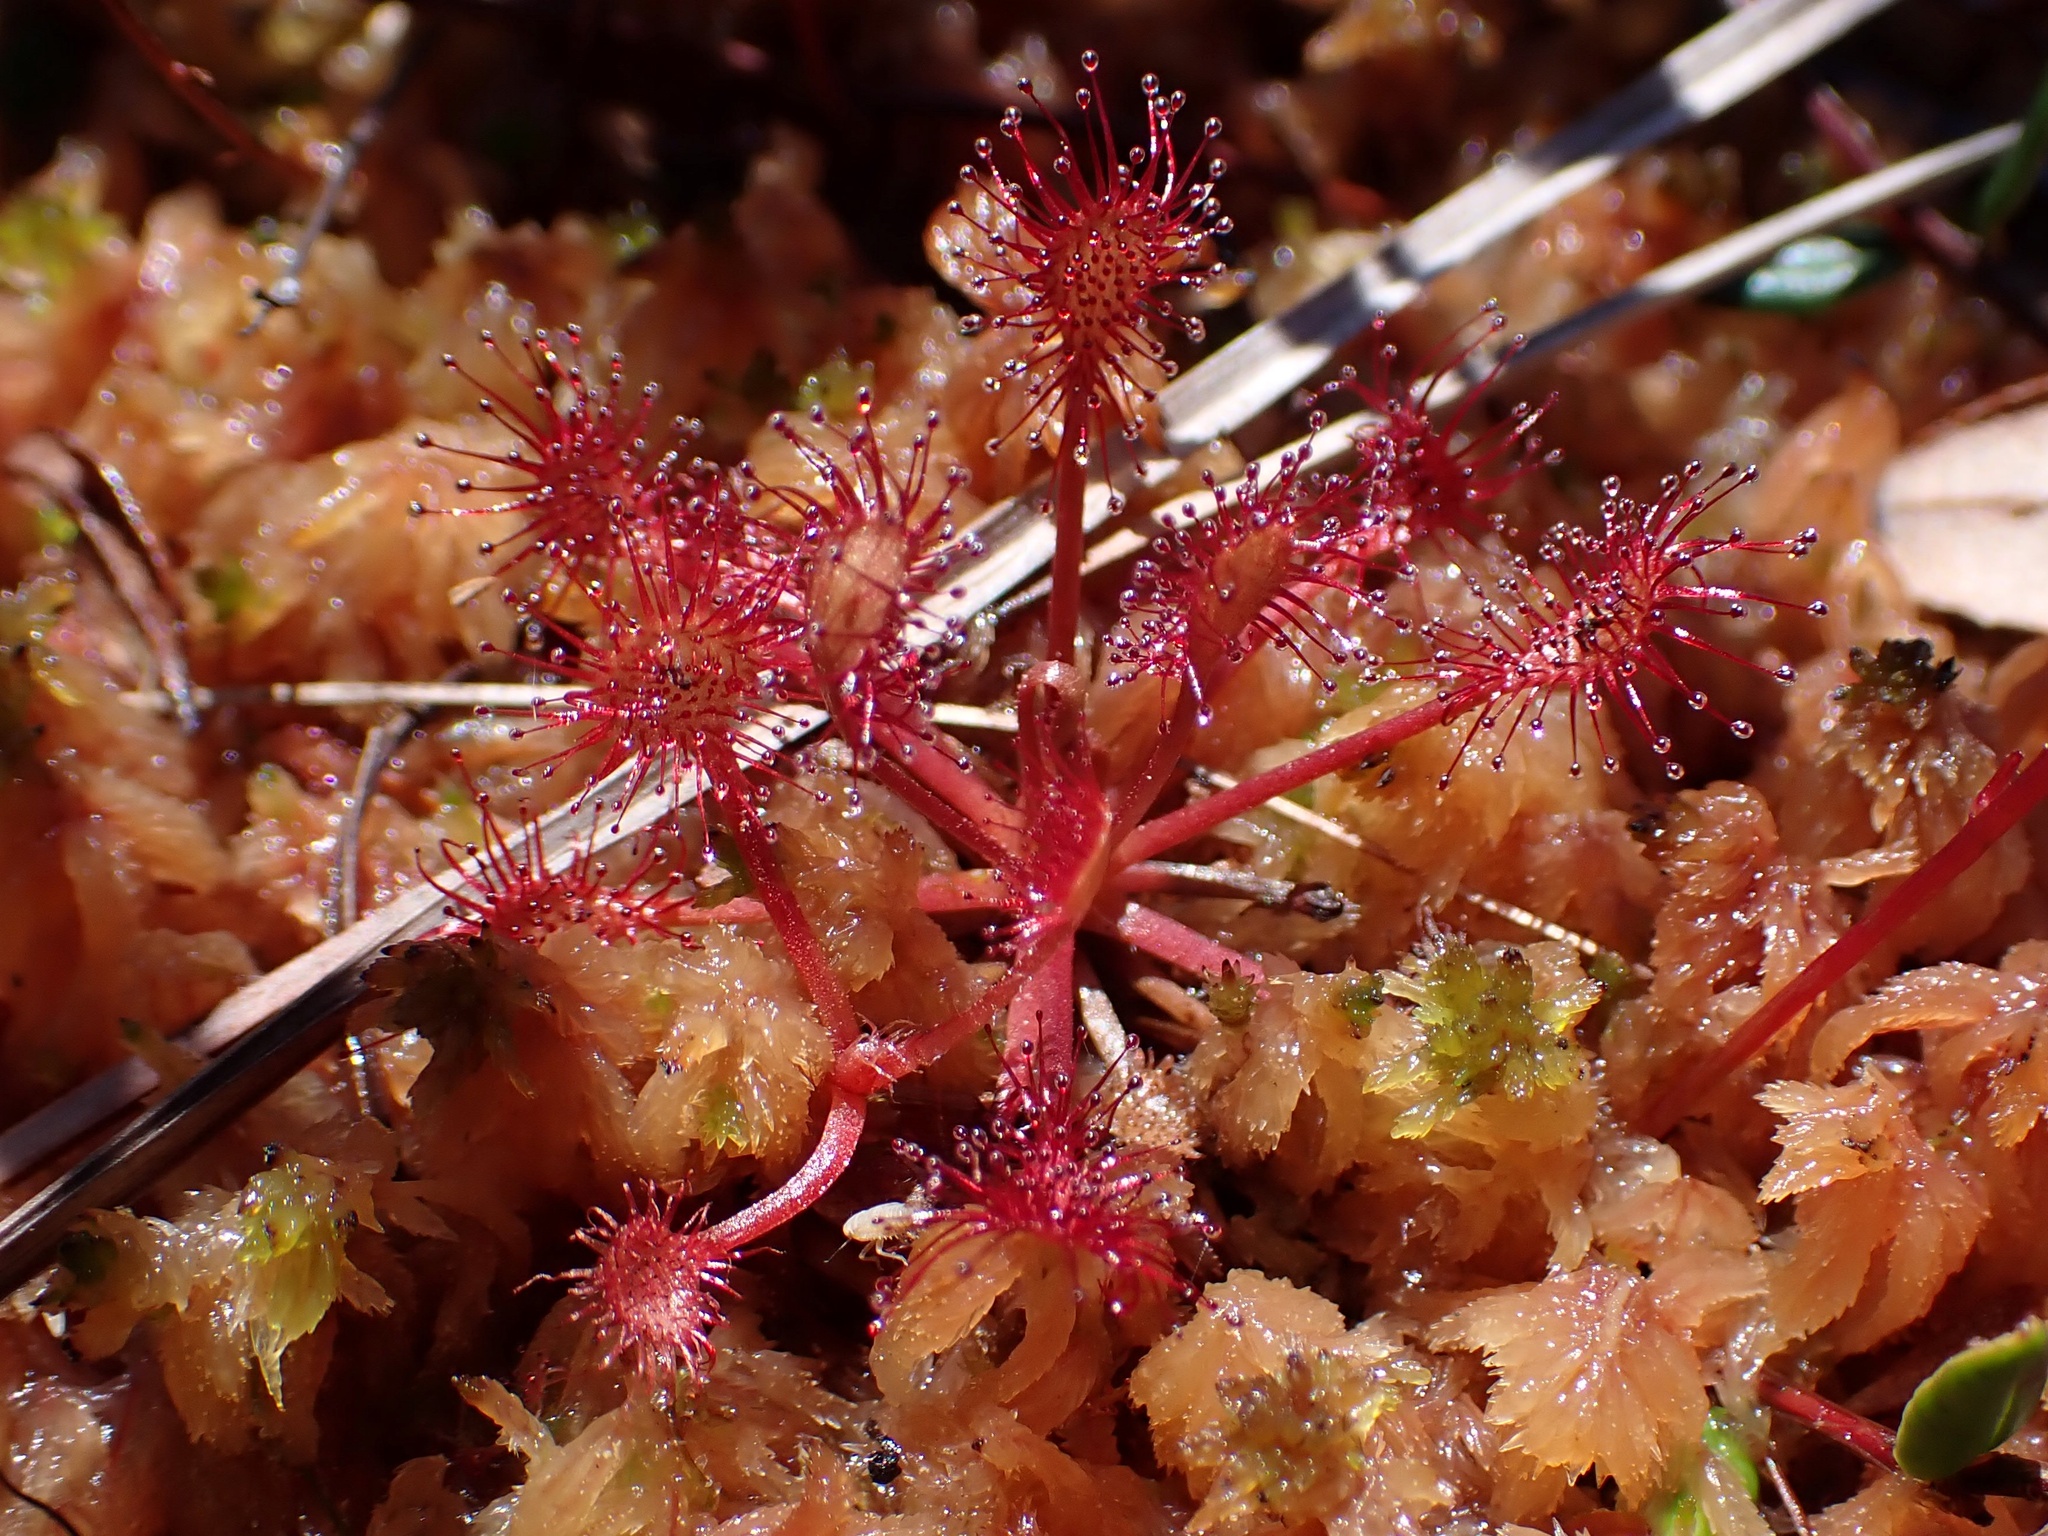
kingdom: Plantae
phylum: Tracheophyta
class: Magnoliopsida
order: Caryophyllales
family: Droseraceae
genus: Drosera
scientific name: Drosera rotundifolia
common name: Round-leaved sundew
